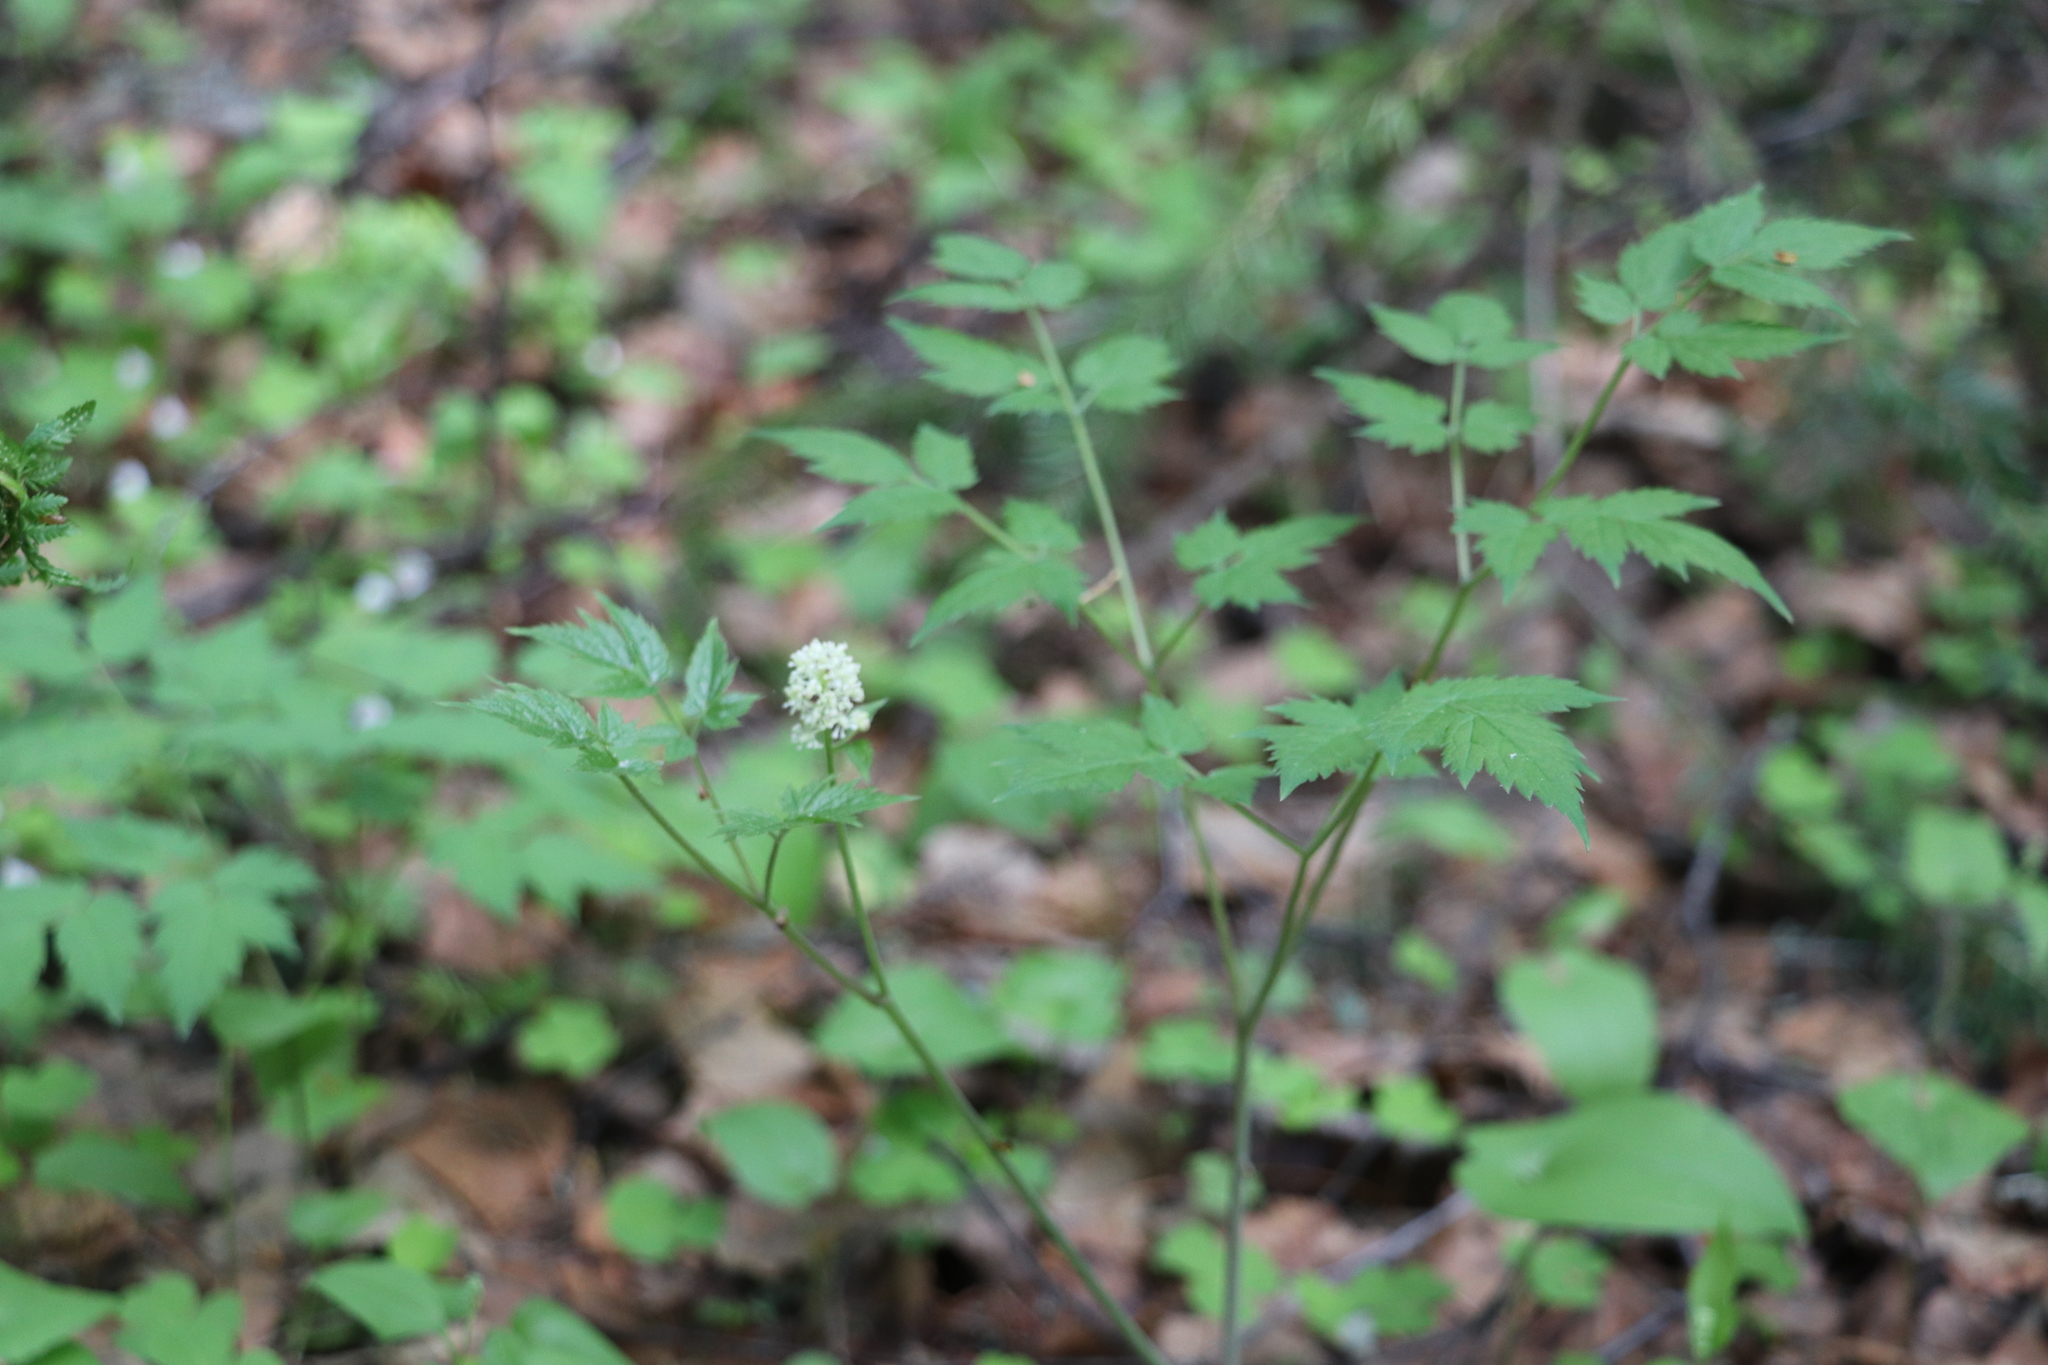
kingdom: Plantae
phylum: Tracheophyta
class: Magnoliopsida
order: Ranunculales
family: Ranunculaceae
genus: Actaea
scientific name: Actaea erythrocarpa
